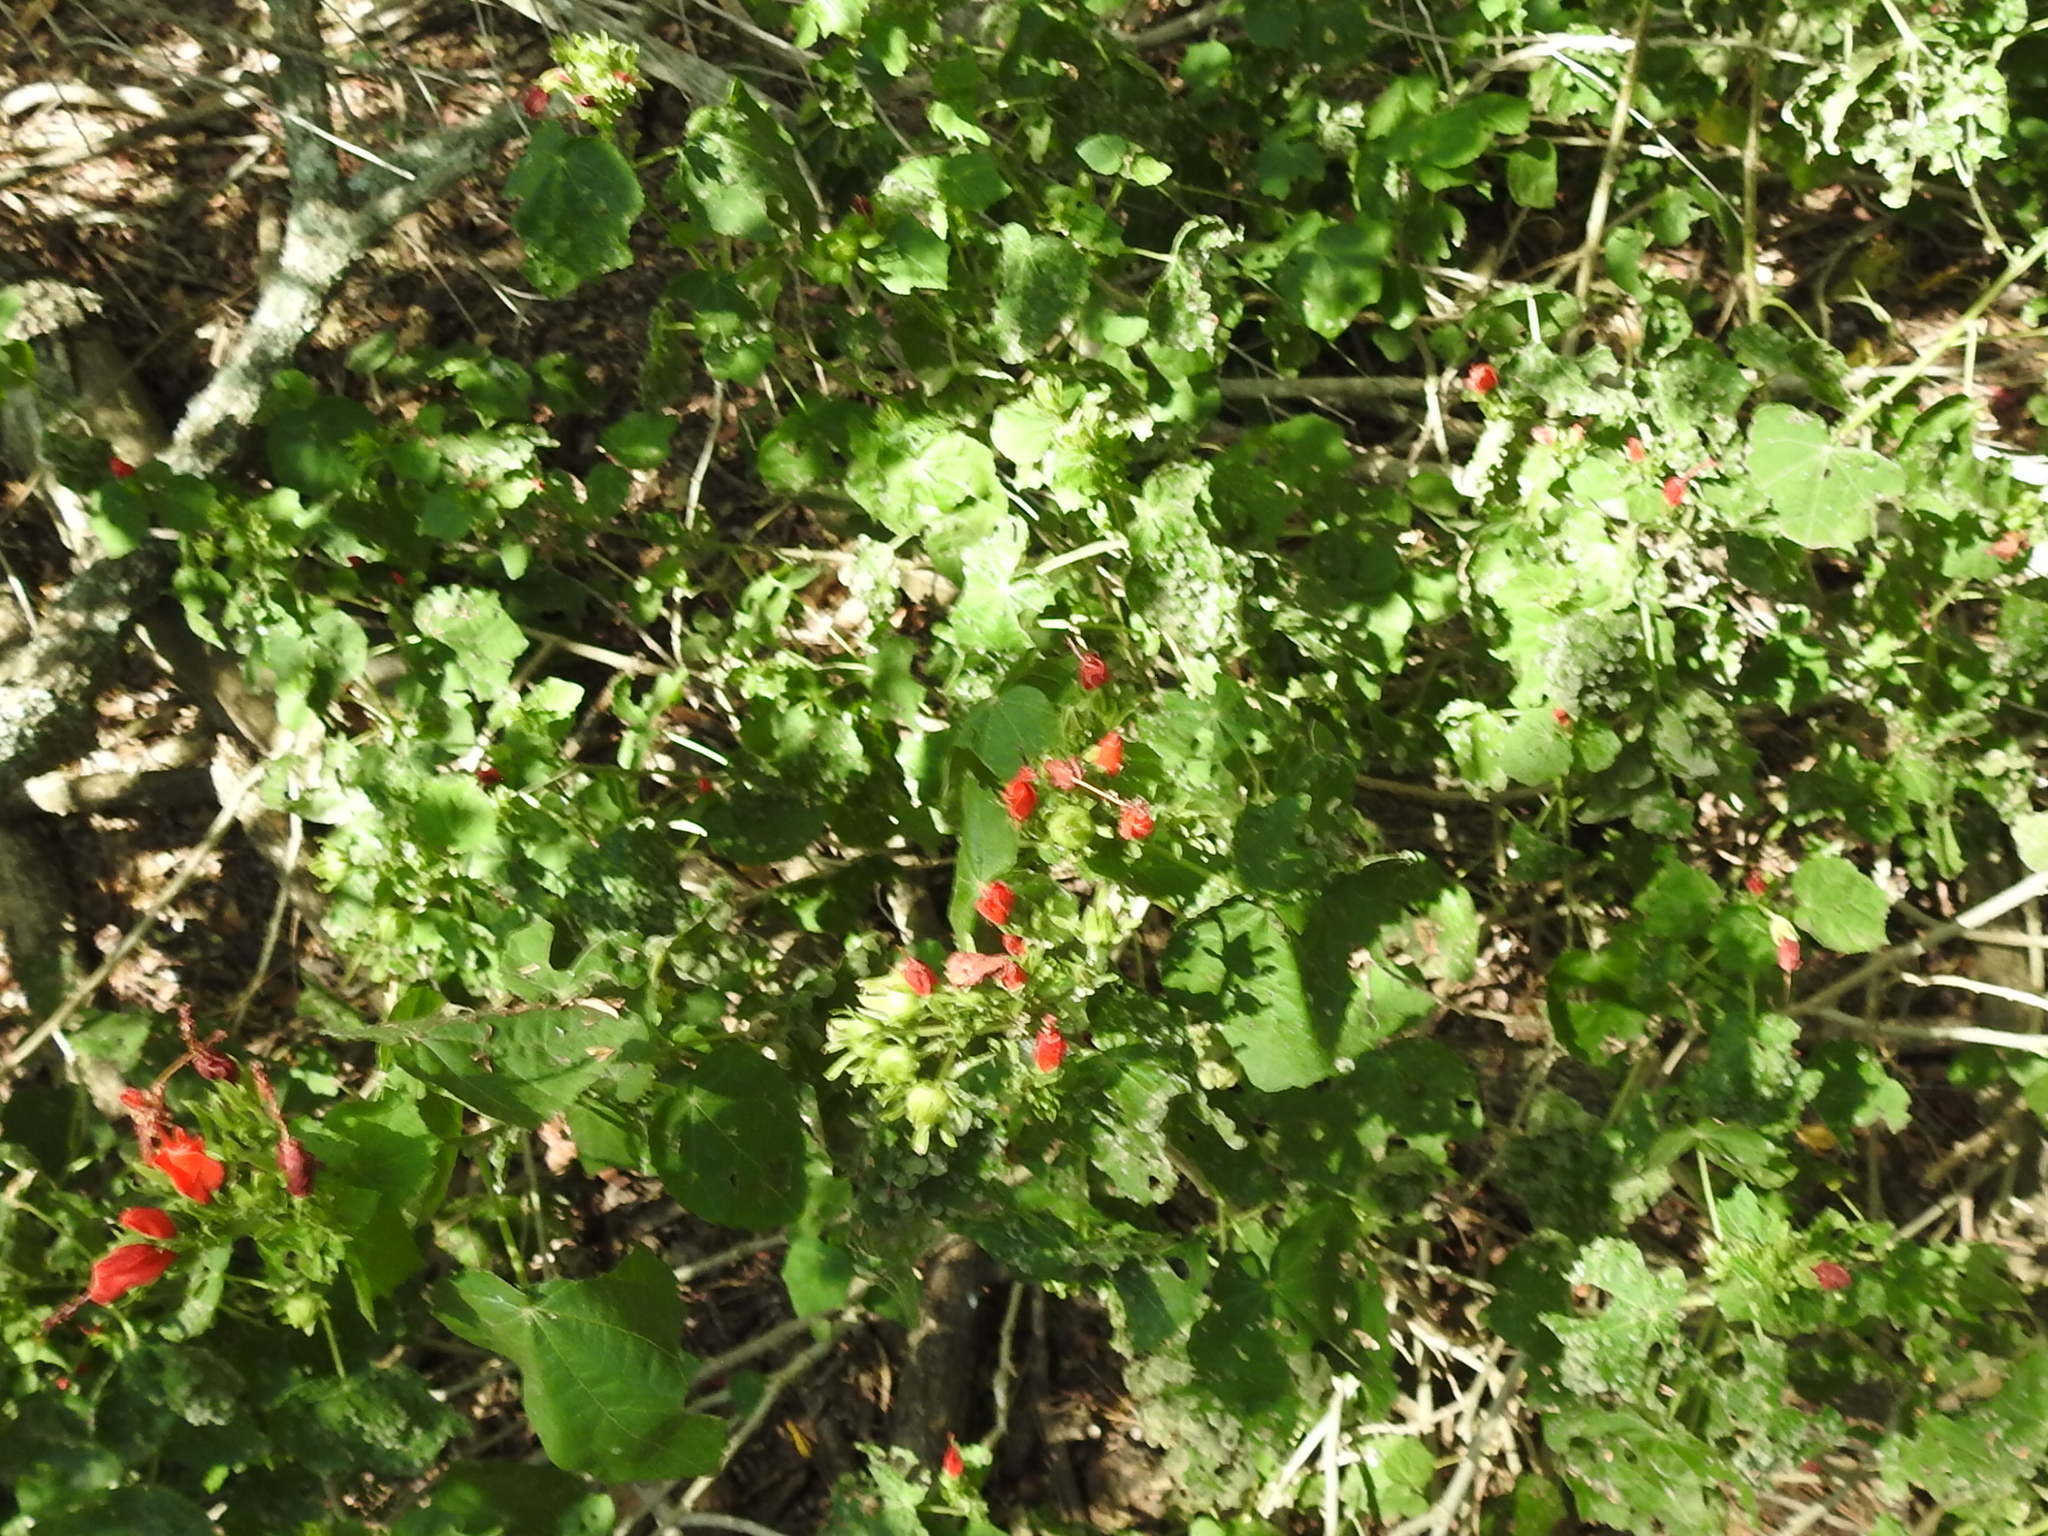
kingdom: Plantae
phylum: Tracheophyta
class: Magnoliopsida
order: Malvales
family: Malvaceae
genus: Malvaviscus
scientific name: Malvaviscus arboreus
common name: Wax mallow
